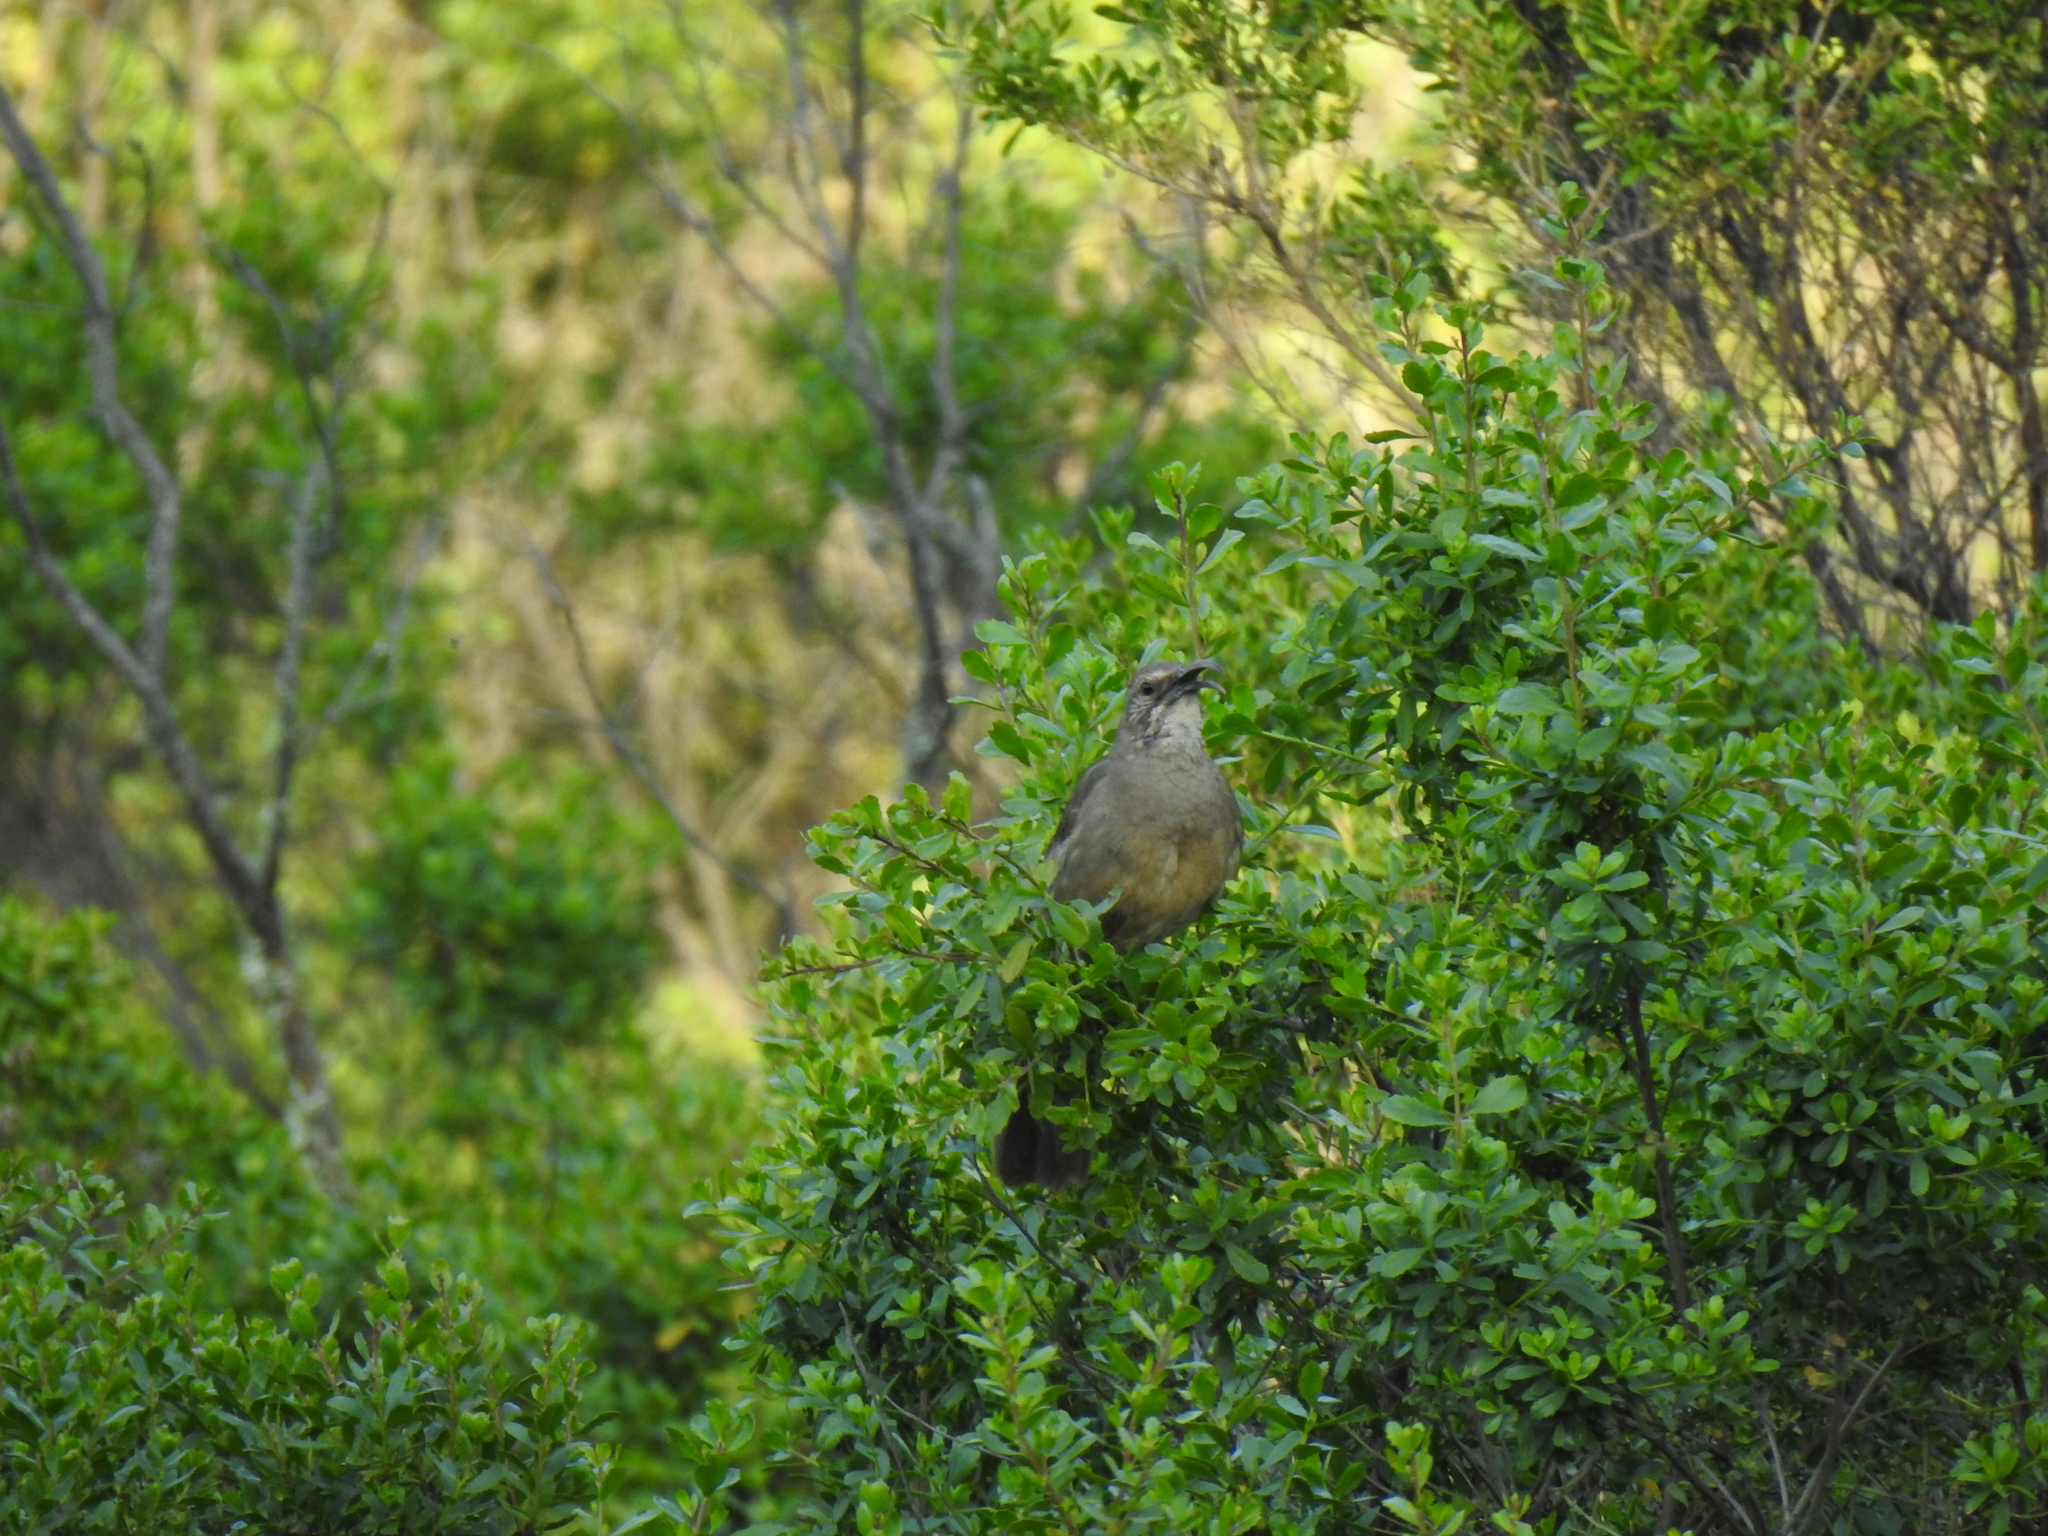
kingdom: Animalia
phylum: Chordata
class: Aves
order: Passeriformes
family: Mimidae
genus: Toxostoma
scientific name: Toxostoma redivivum
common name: California thrasher
